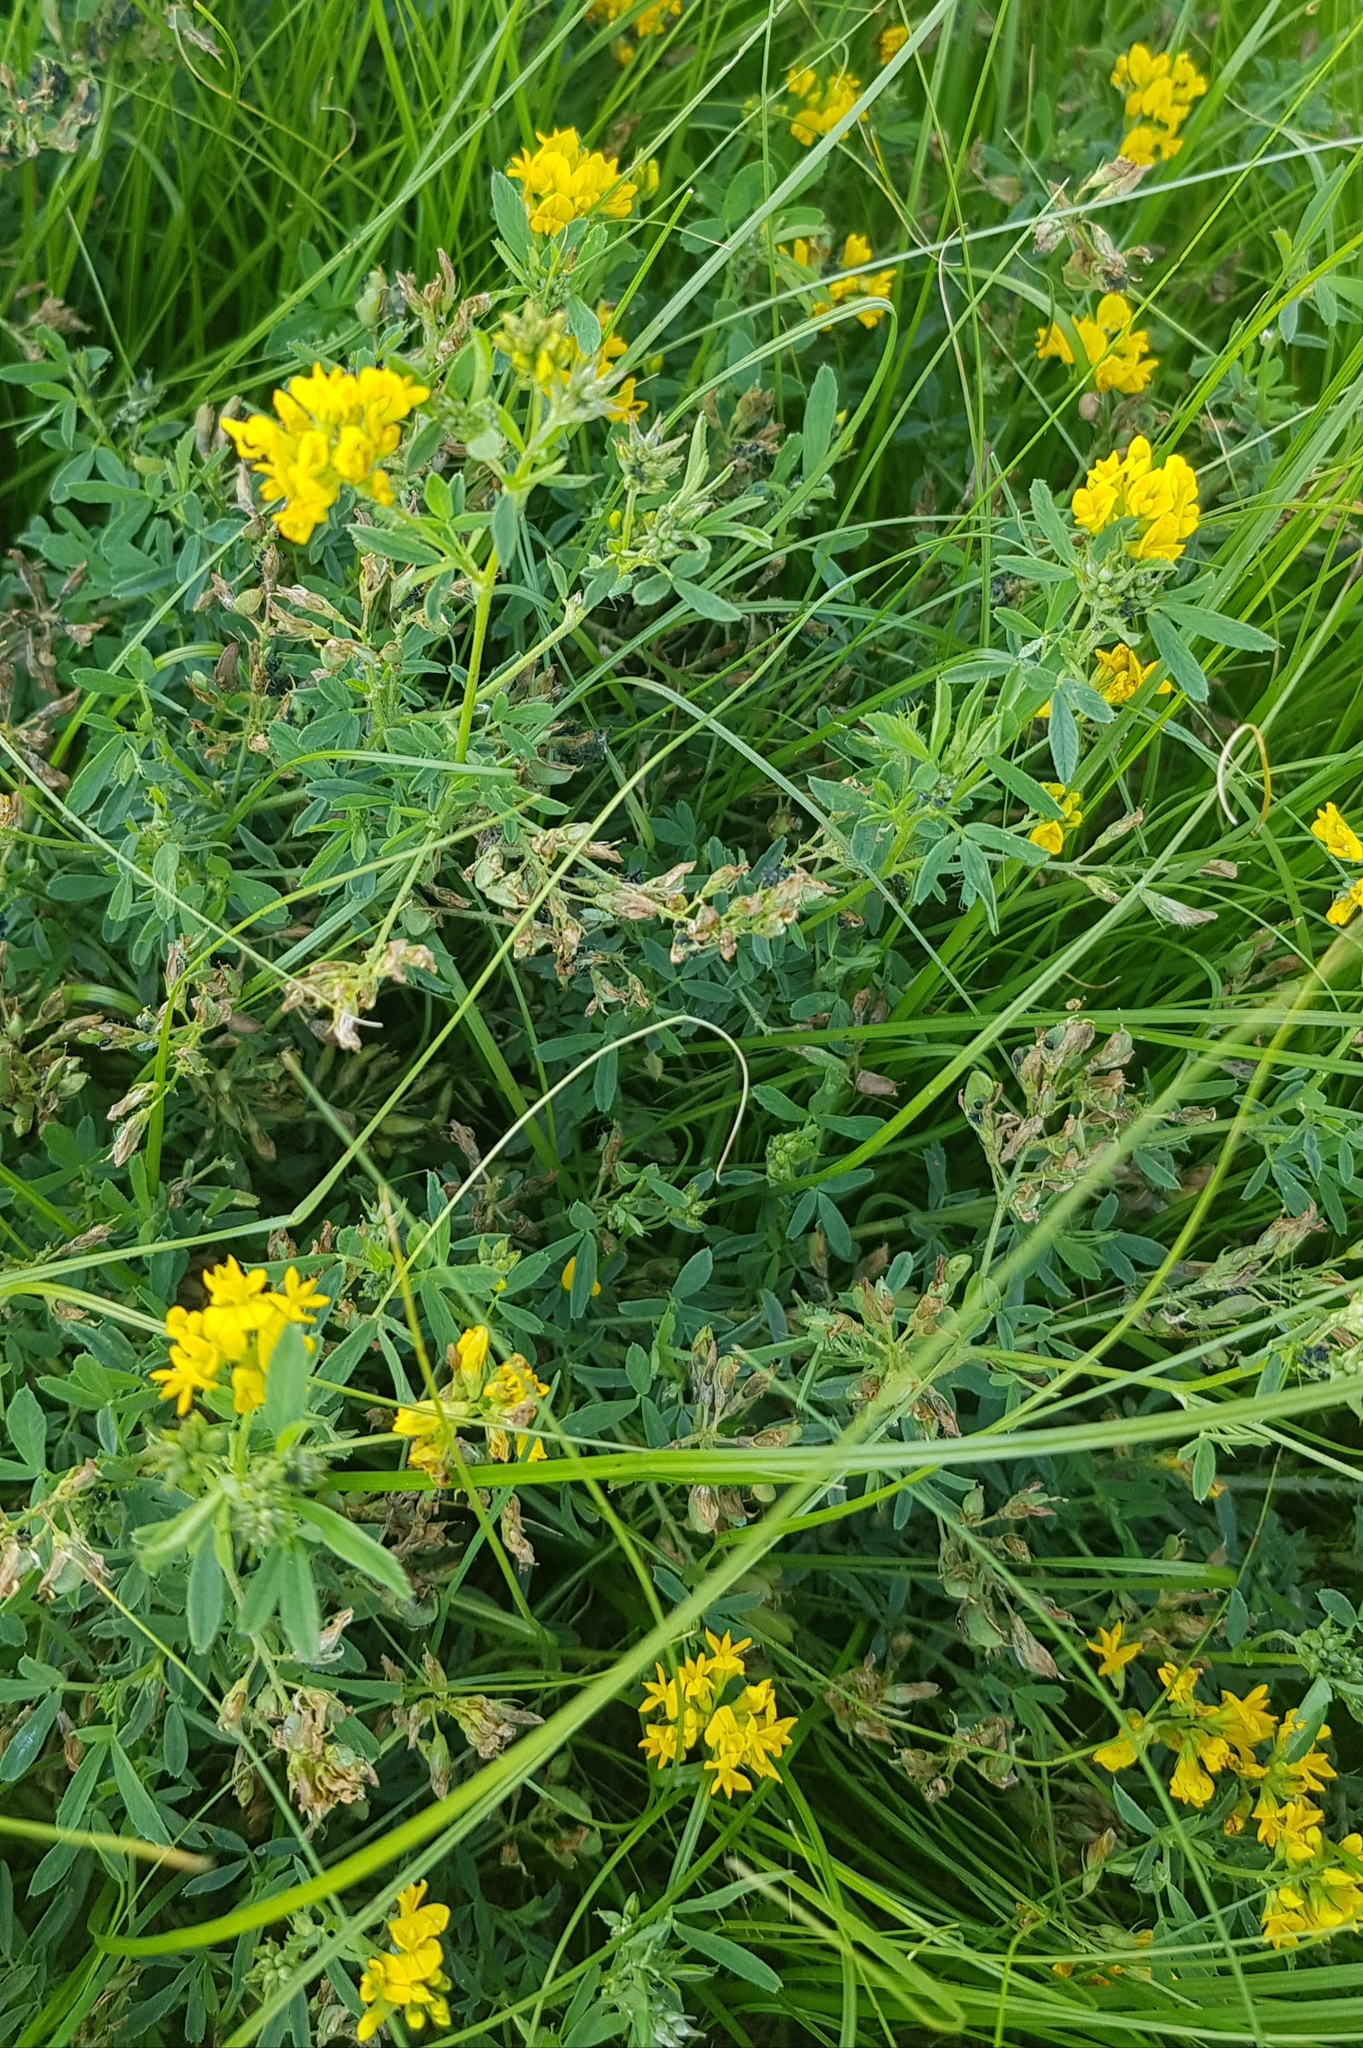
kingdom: Plantae
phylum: Tracheophyta
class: Magnoliopsida
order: Fabales
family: Fabaceae
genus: Medicago
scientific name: Medicago falcata
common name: Sickle medick
